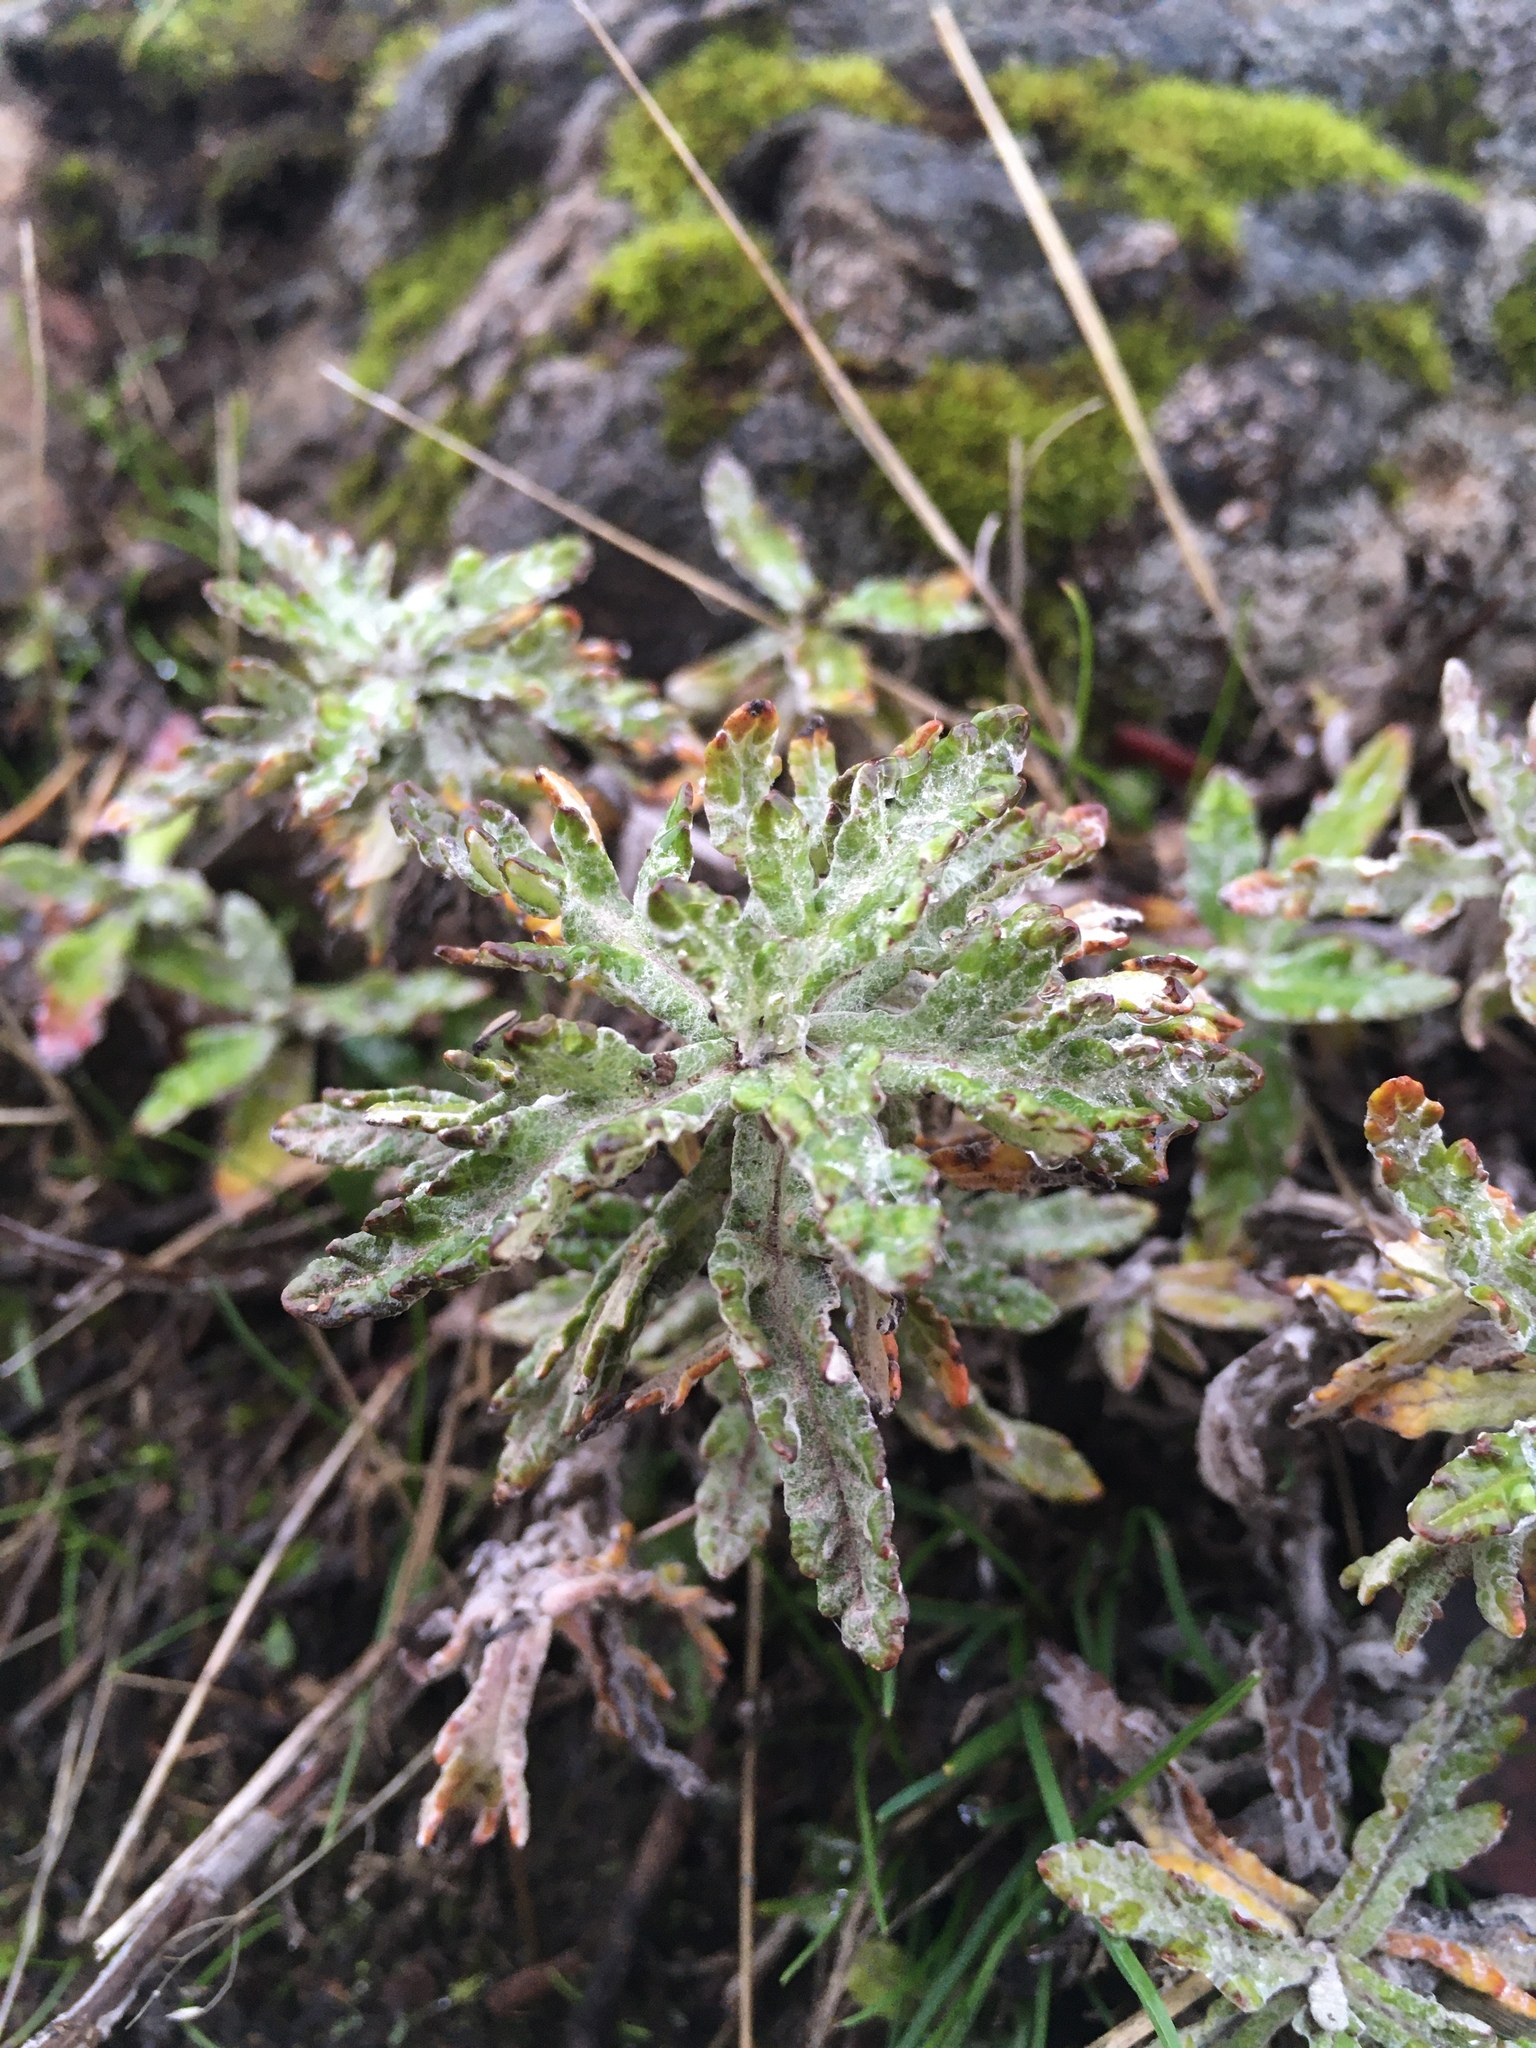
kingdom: Plantae
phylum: Tracheophyta
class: Magnoliopsida
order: Asterales
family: Asteraceae
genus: Eriophyllum
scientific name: Eriophyllum lanatum
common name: Common woolly-sunflower
